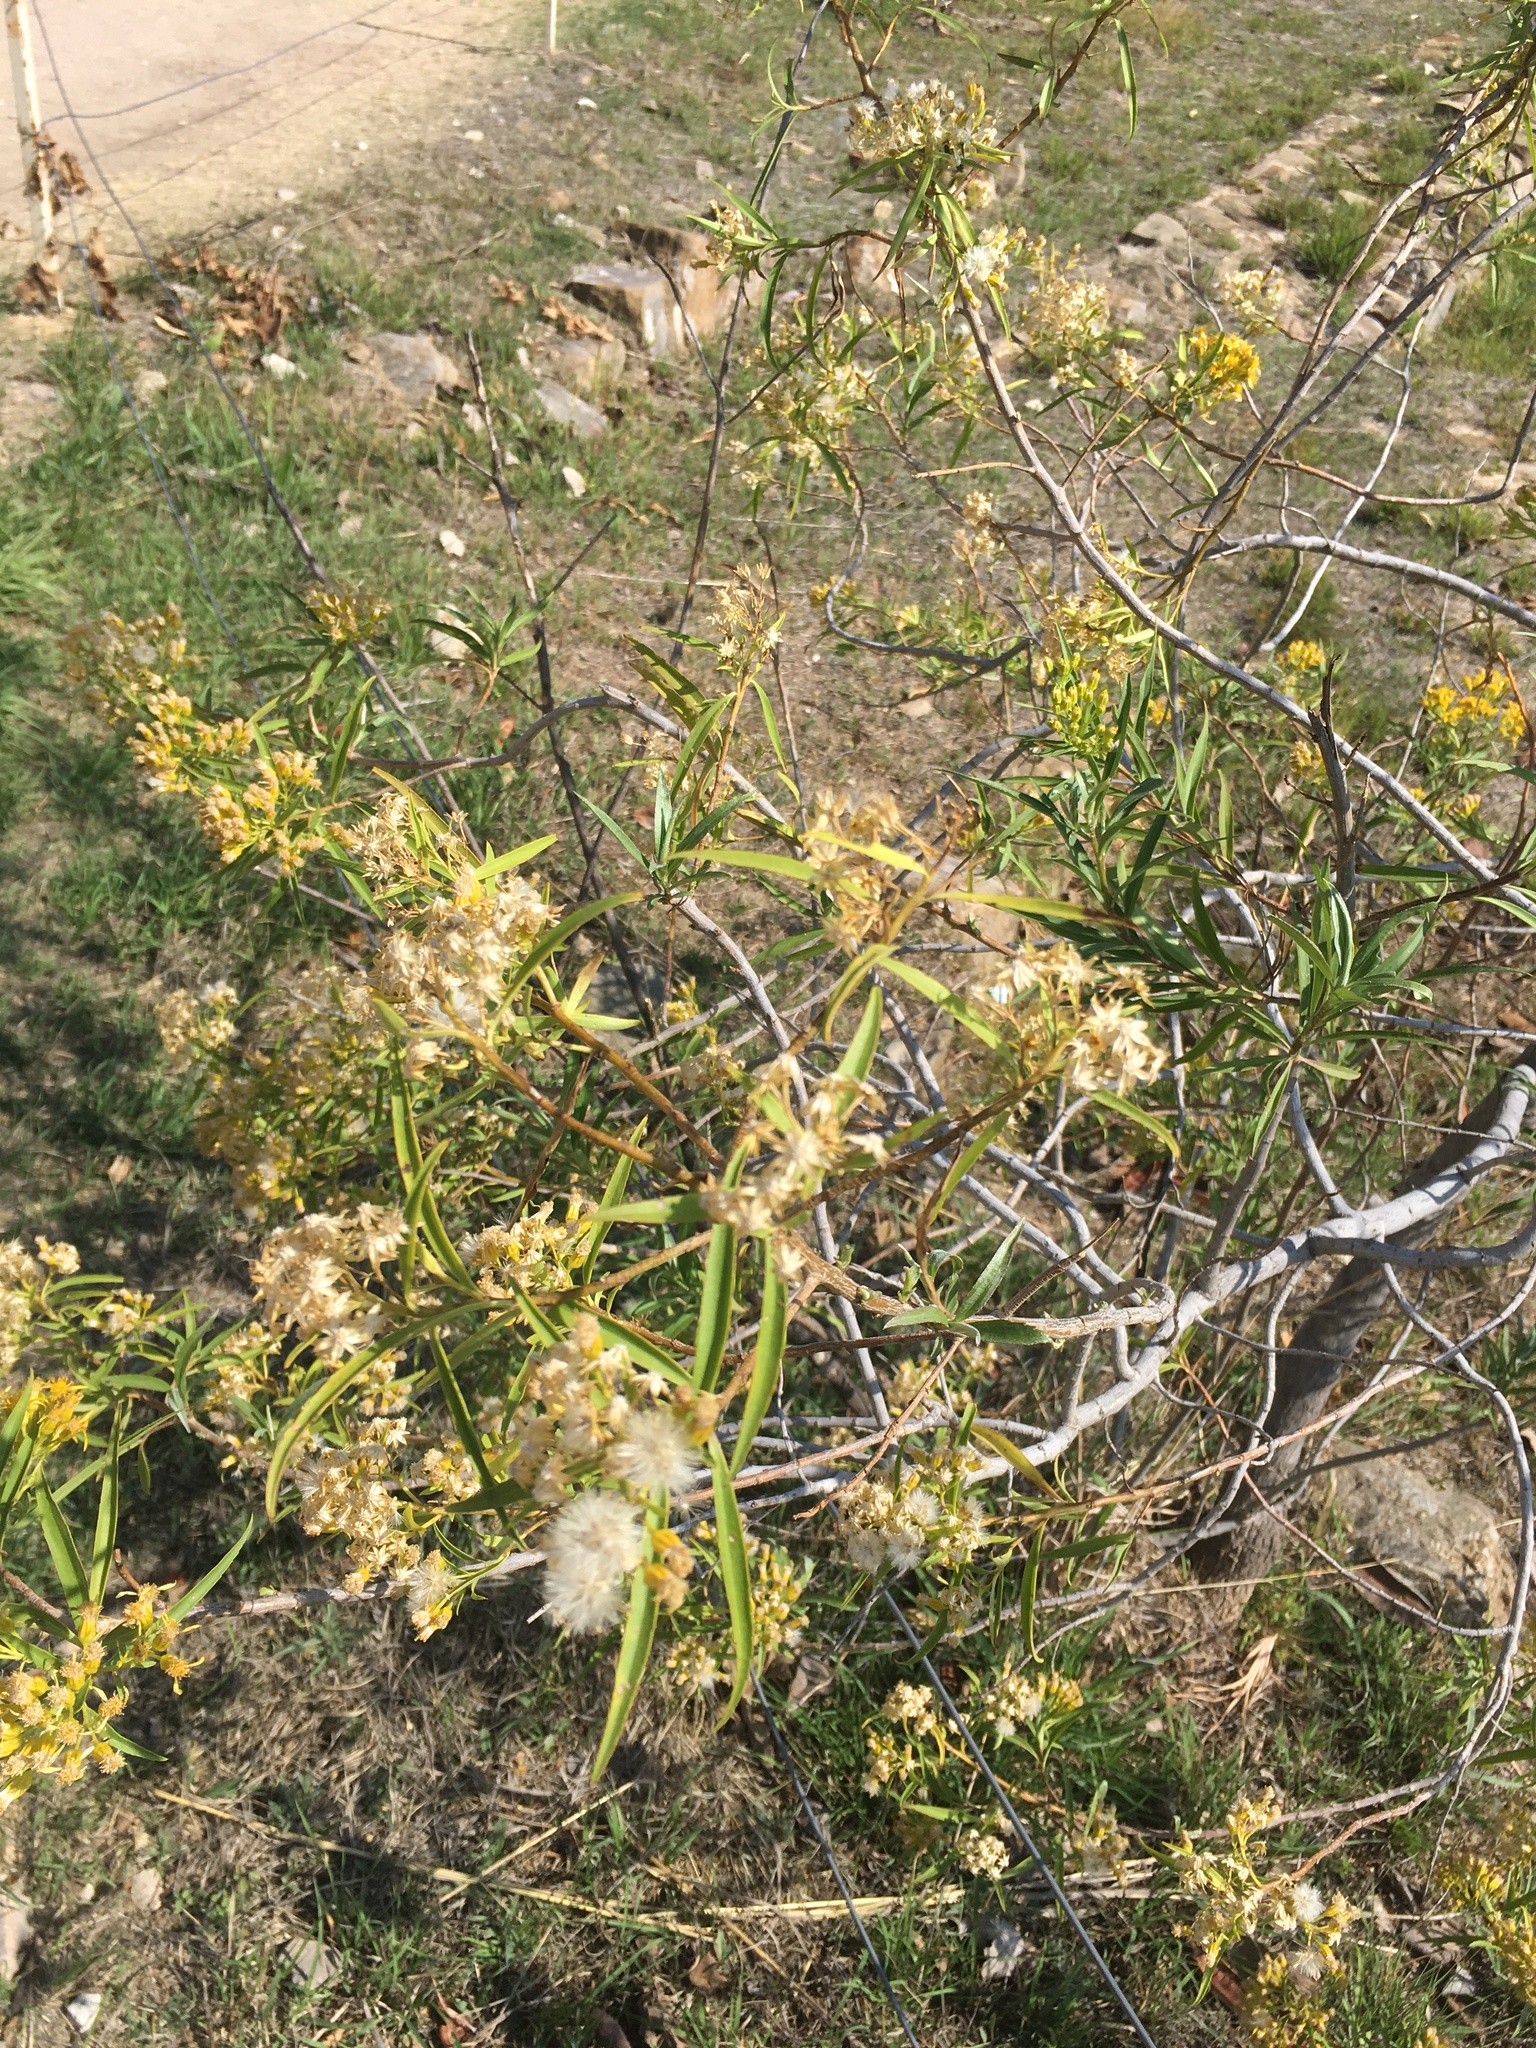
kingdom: Plantae
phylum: Tracheophyta
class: Magnoliopsida
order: Asterales
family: Asteraceae
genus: Barkleyanthus
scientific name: Barkleyanthus salicifolius
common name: Willow ragwort
